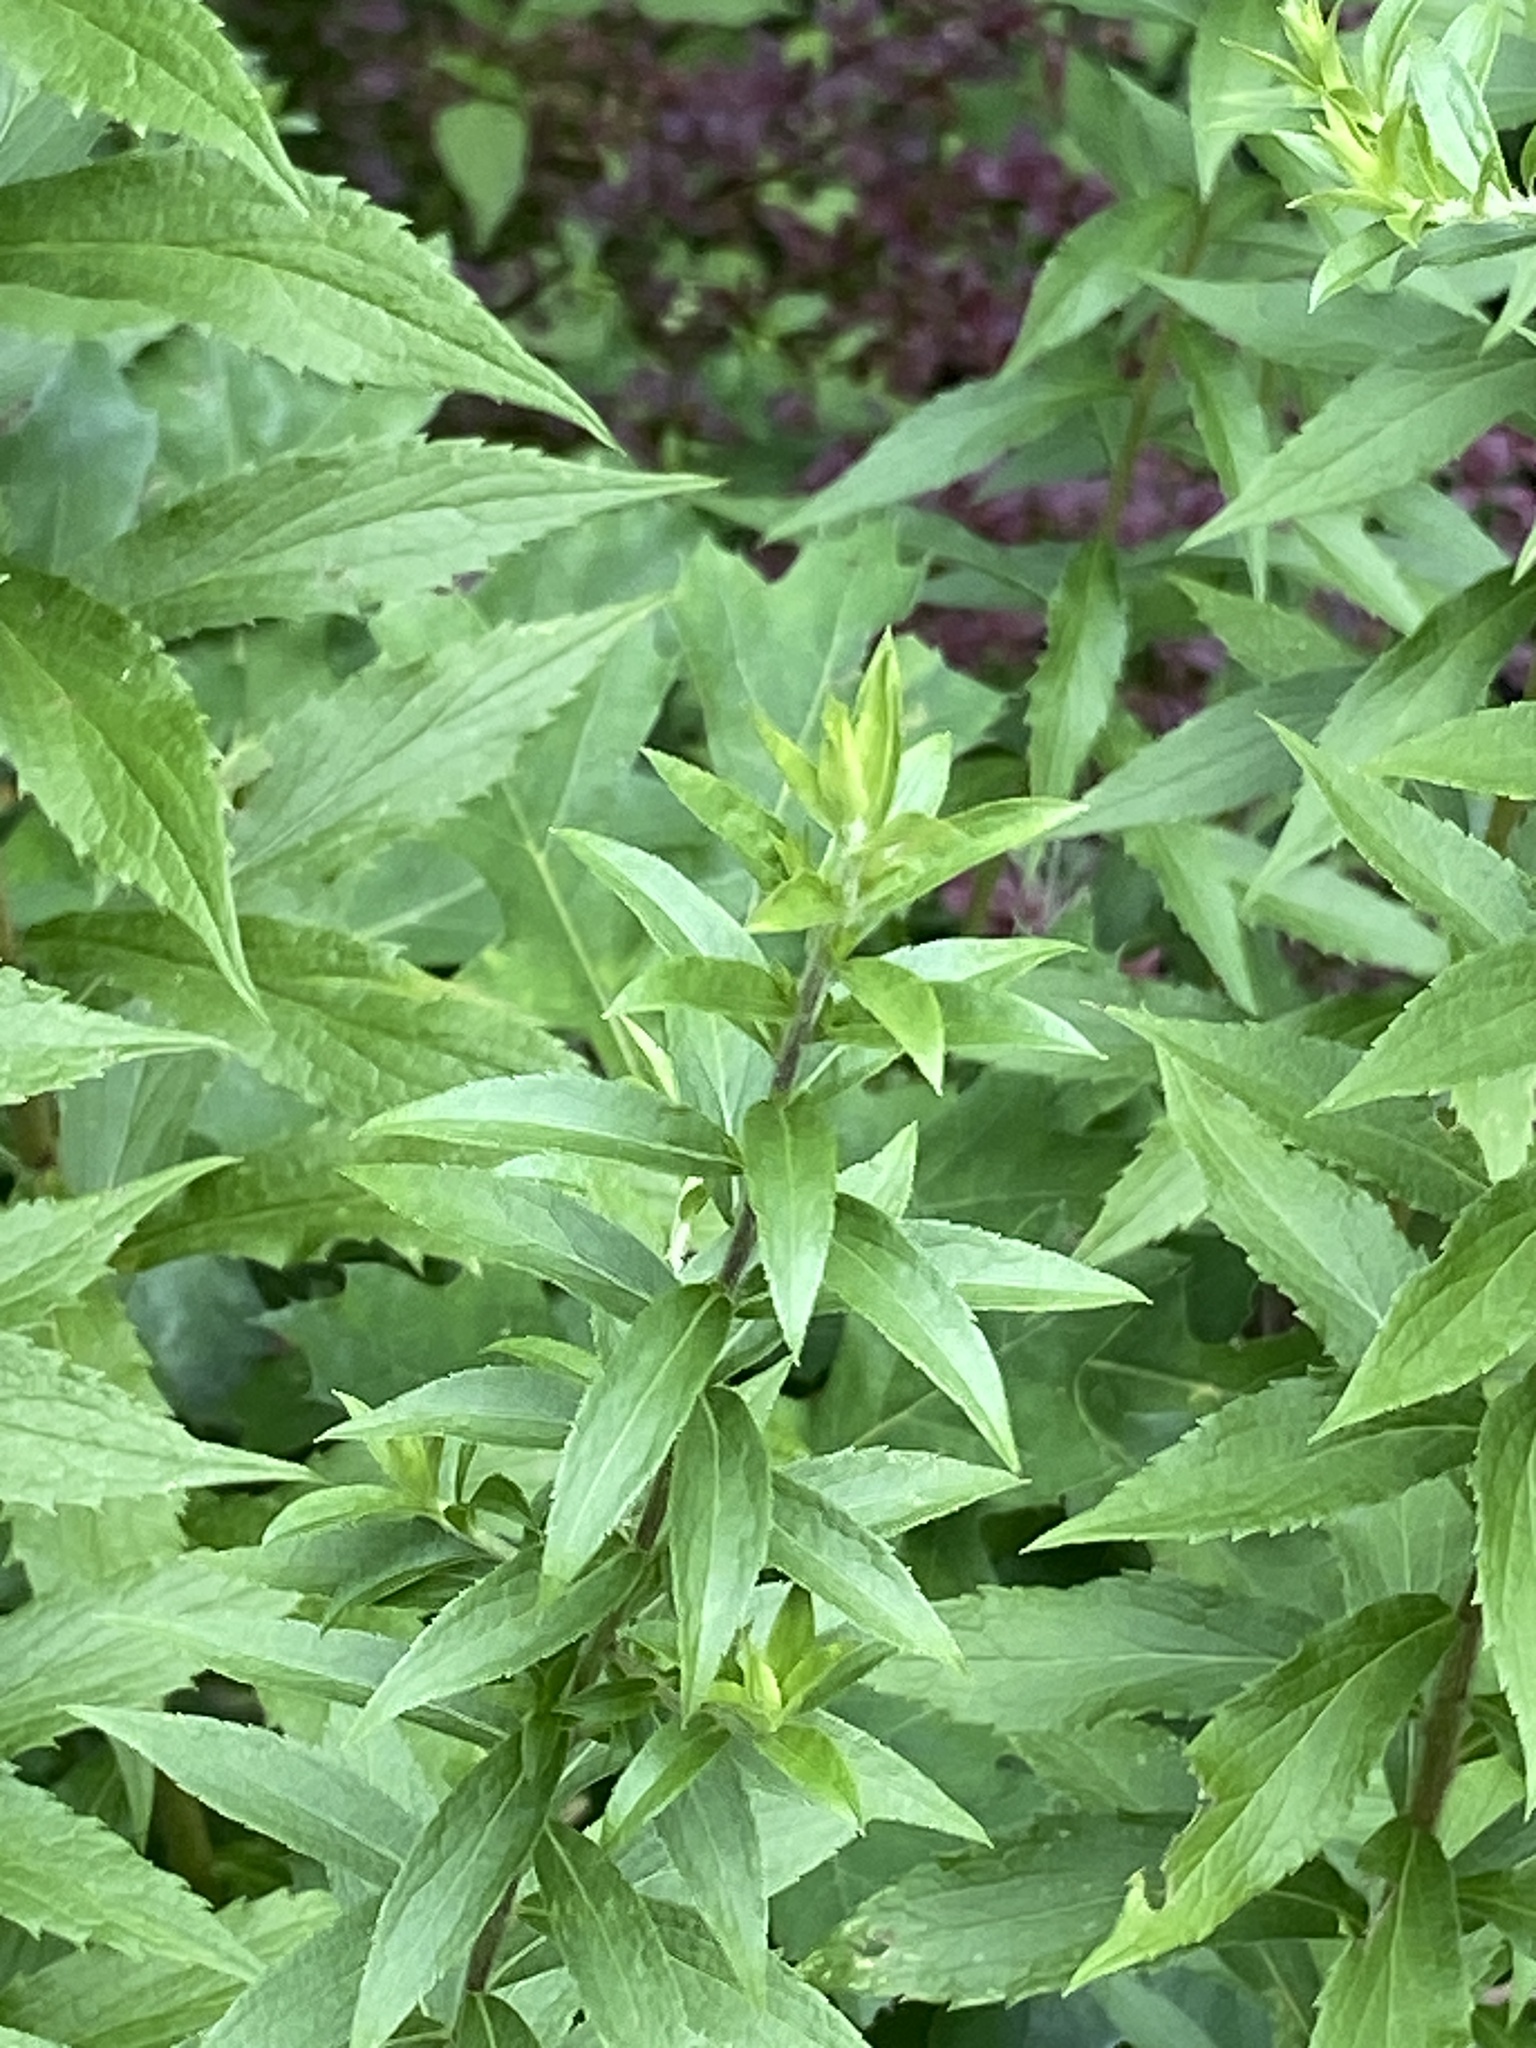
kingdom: Plantae
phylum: Tracheophyta
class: Magnoliopsida
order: Asterales
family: Asteraceae
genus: Solidago
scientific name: Solidago rugosa
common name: Rough-stemmed goldenrod
